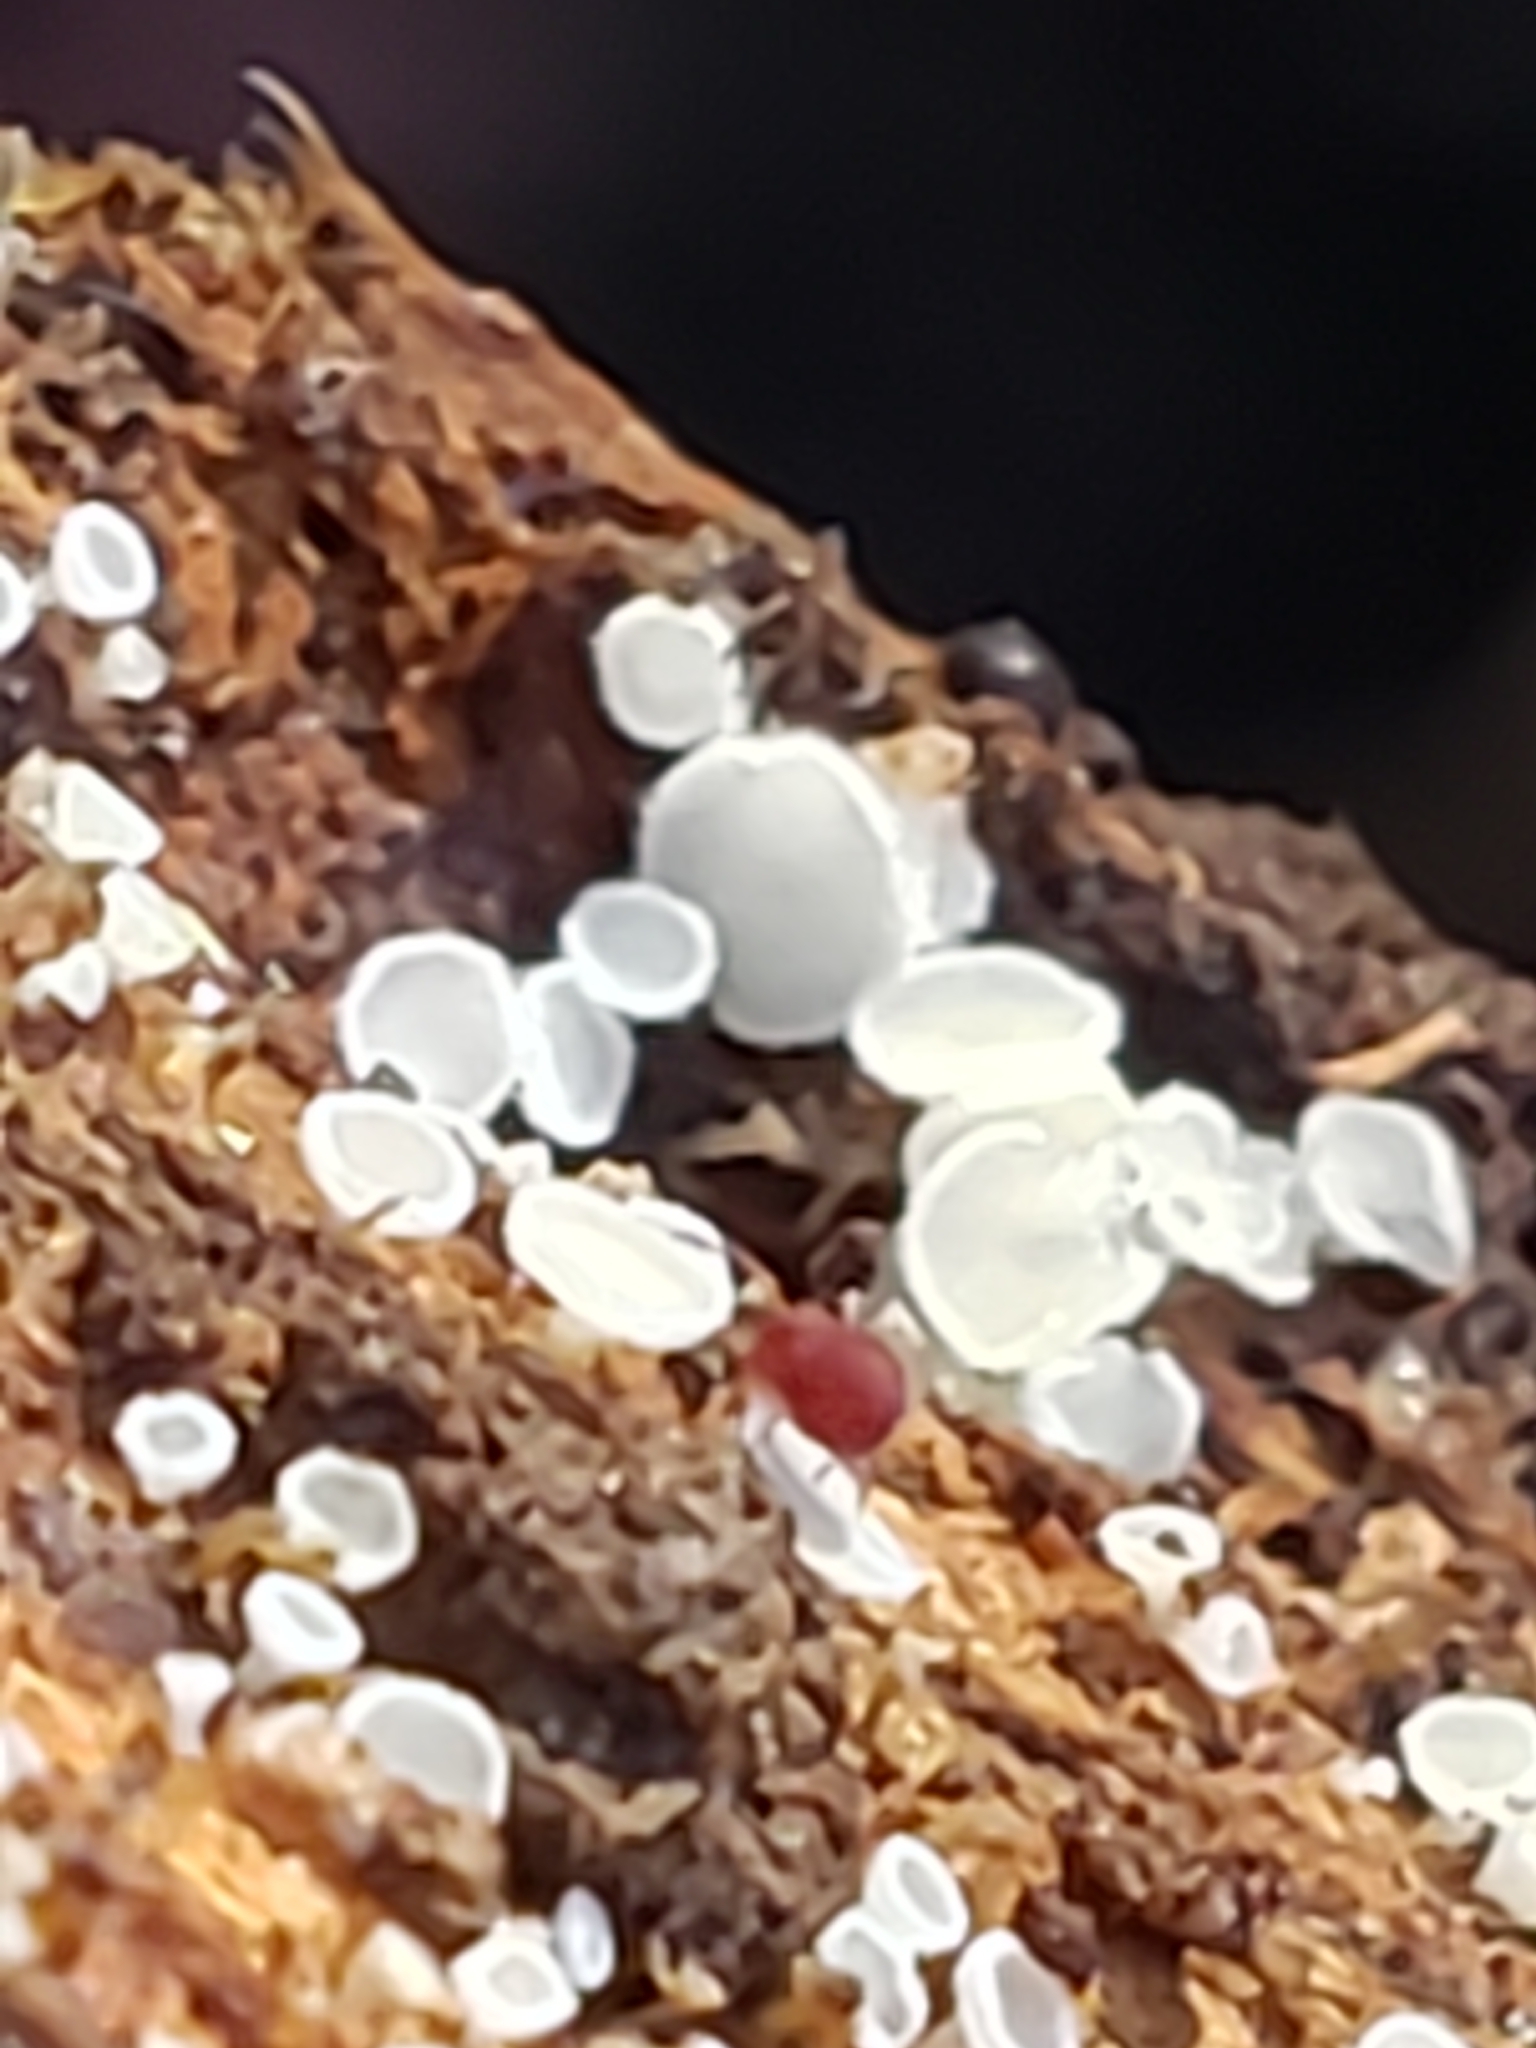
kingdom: Fungi
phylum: Ascomycota
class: Leotiomycetes
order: Helotiales
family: Lachnaceae
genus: Lachnum
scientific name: Lachnum virgineum
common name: Snowy disco
